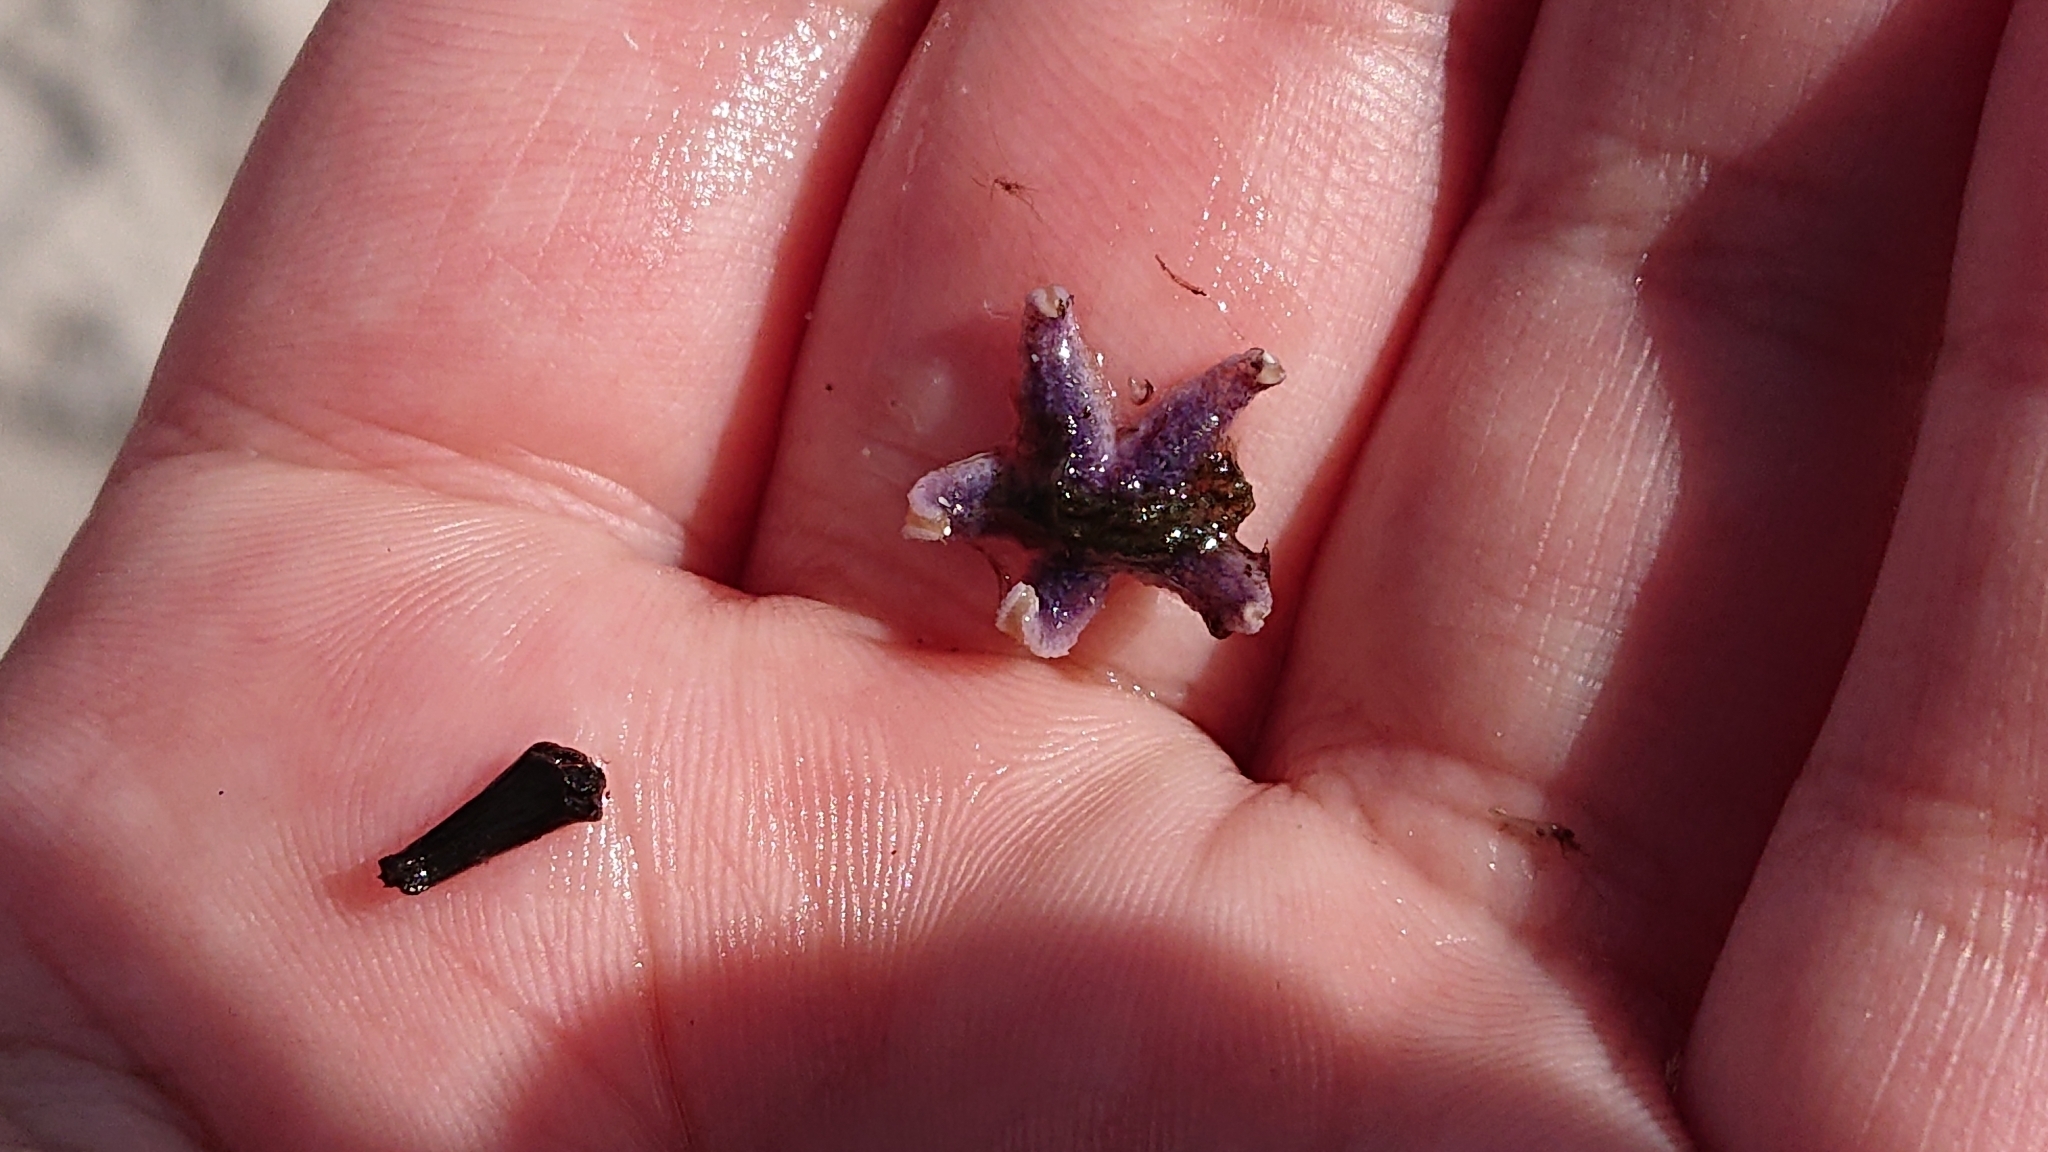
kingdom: Animalia
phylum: Echinodermata
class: Asteroidea
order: Forcipulatida
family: Asteriidae
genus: Asterias
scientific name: Asterias rubens
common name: Common starfish
